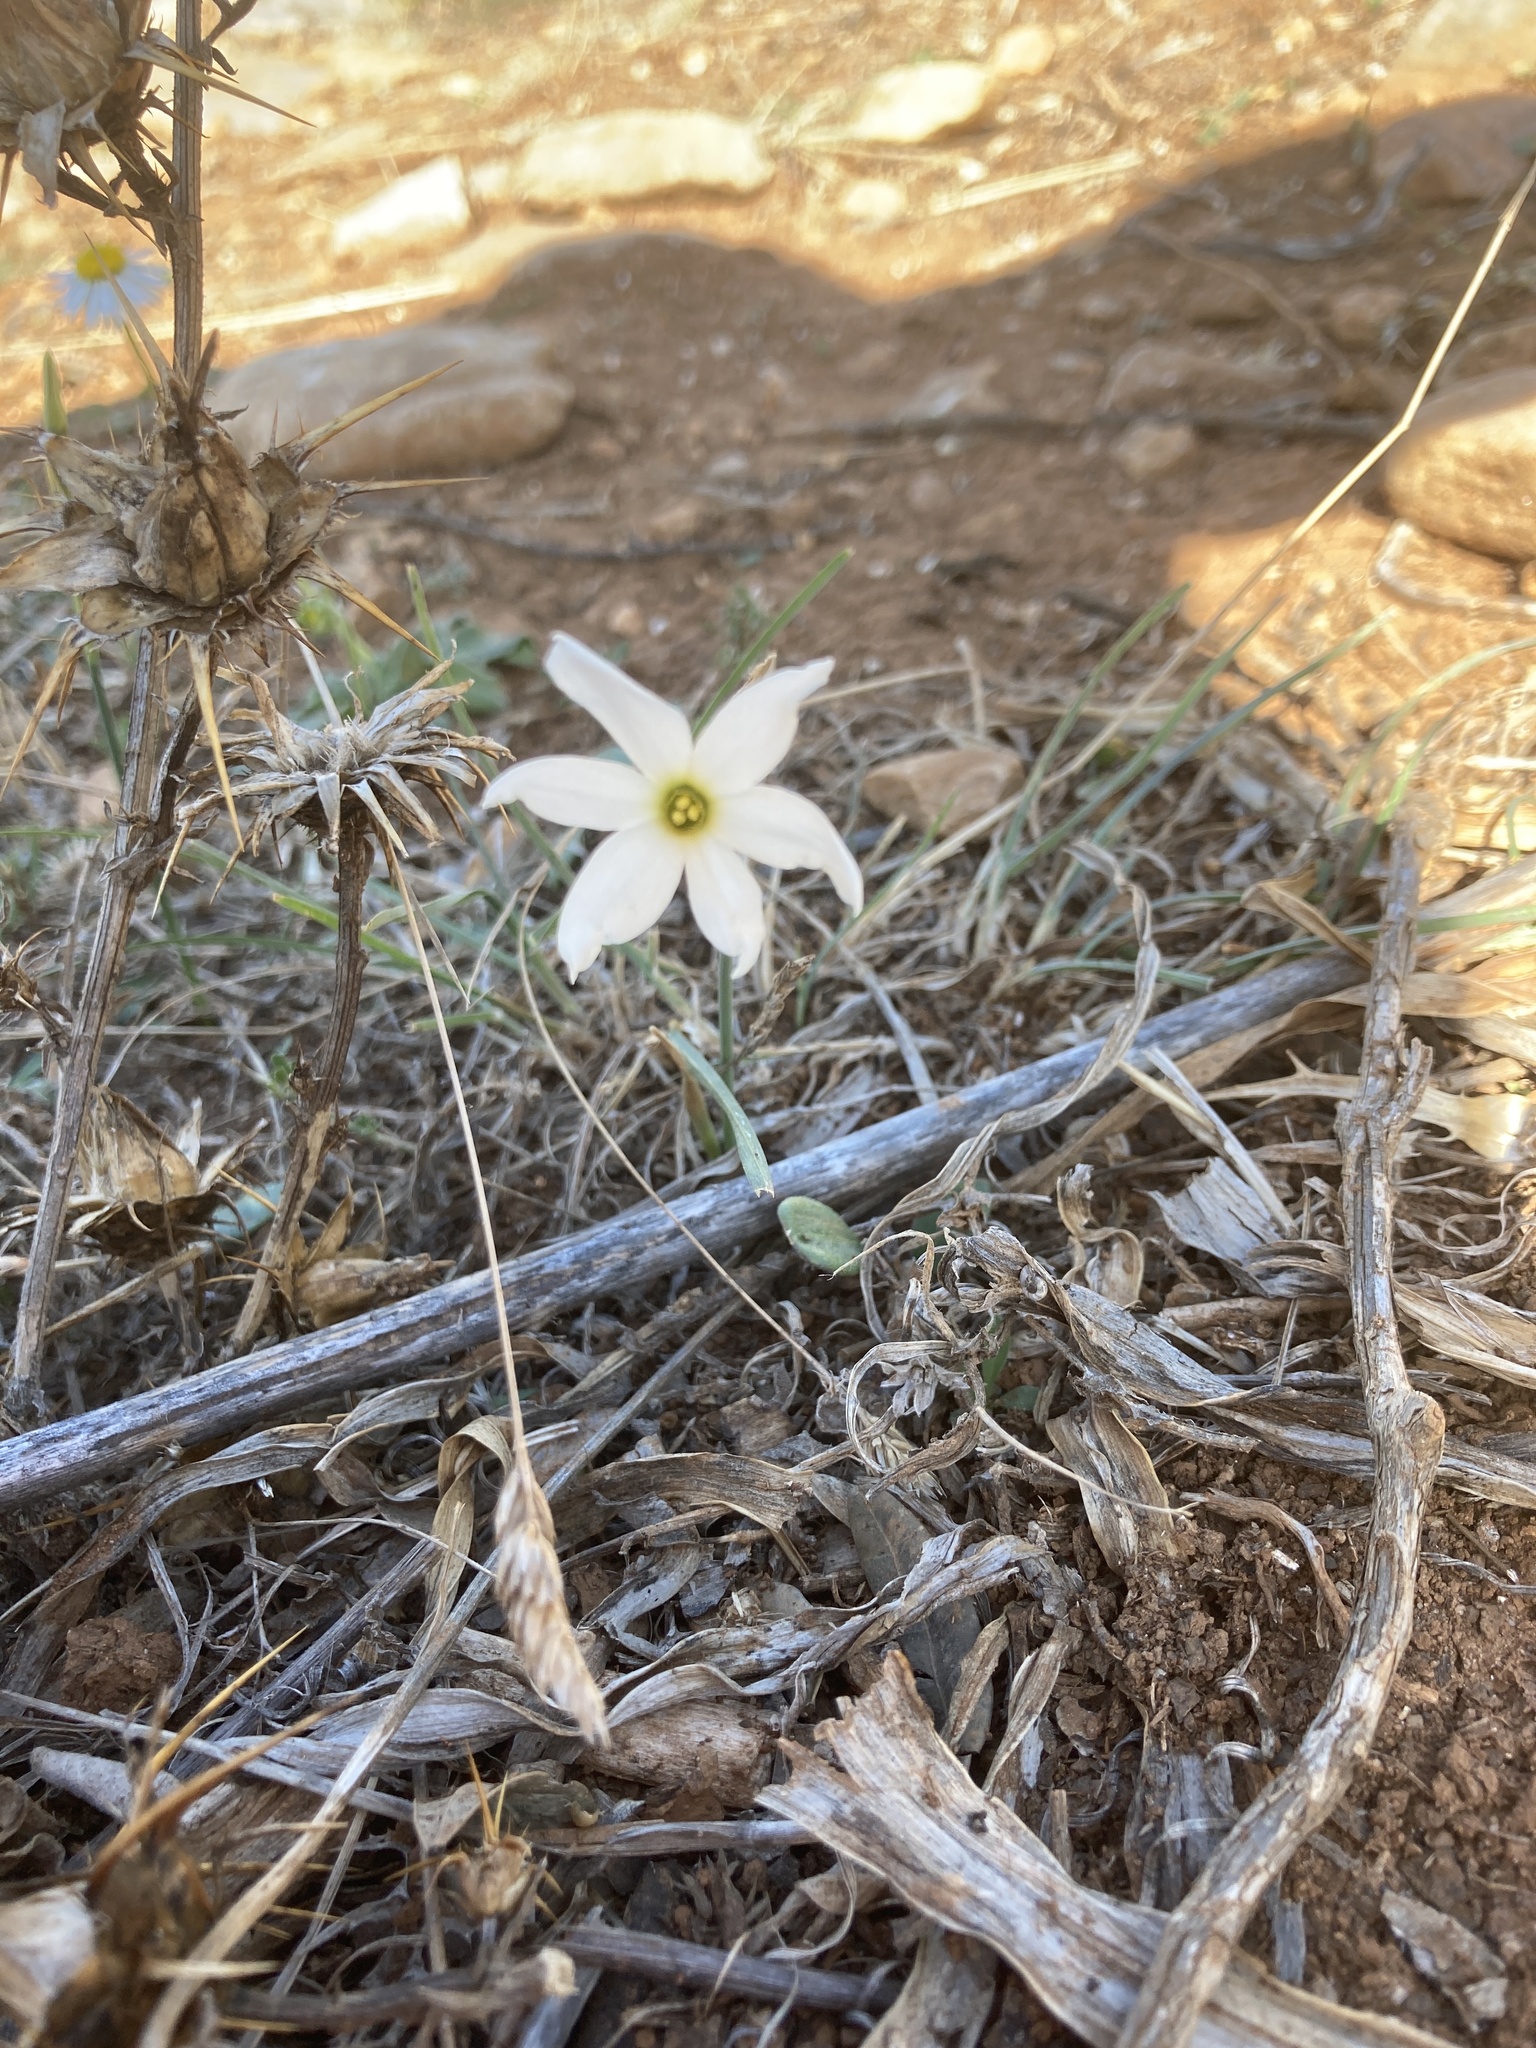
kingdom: Plantae
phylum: Tracheophyta
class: Liliopsida
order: Asparagales
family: Amaryllidaceae
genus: Narcissus
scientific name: Narcissus deficiens
